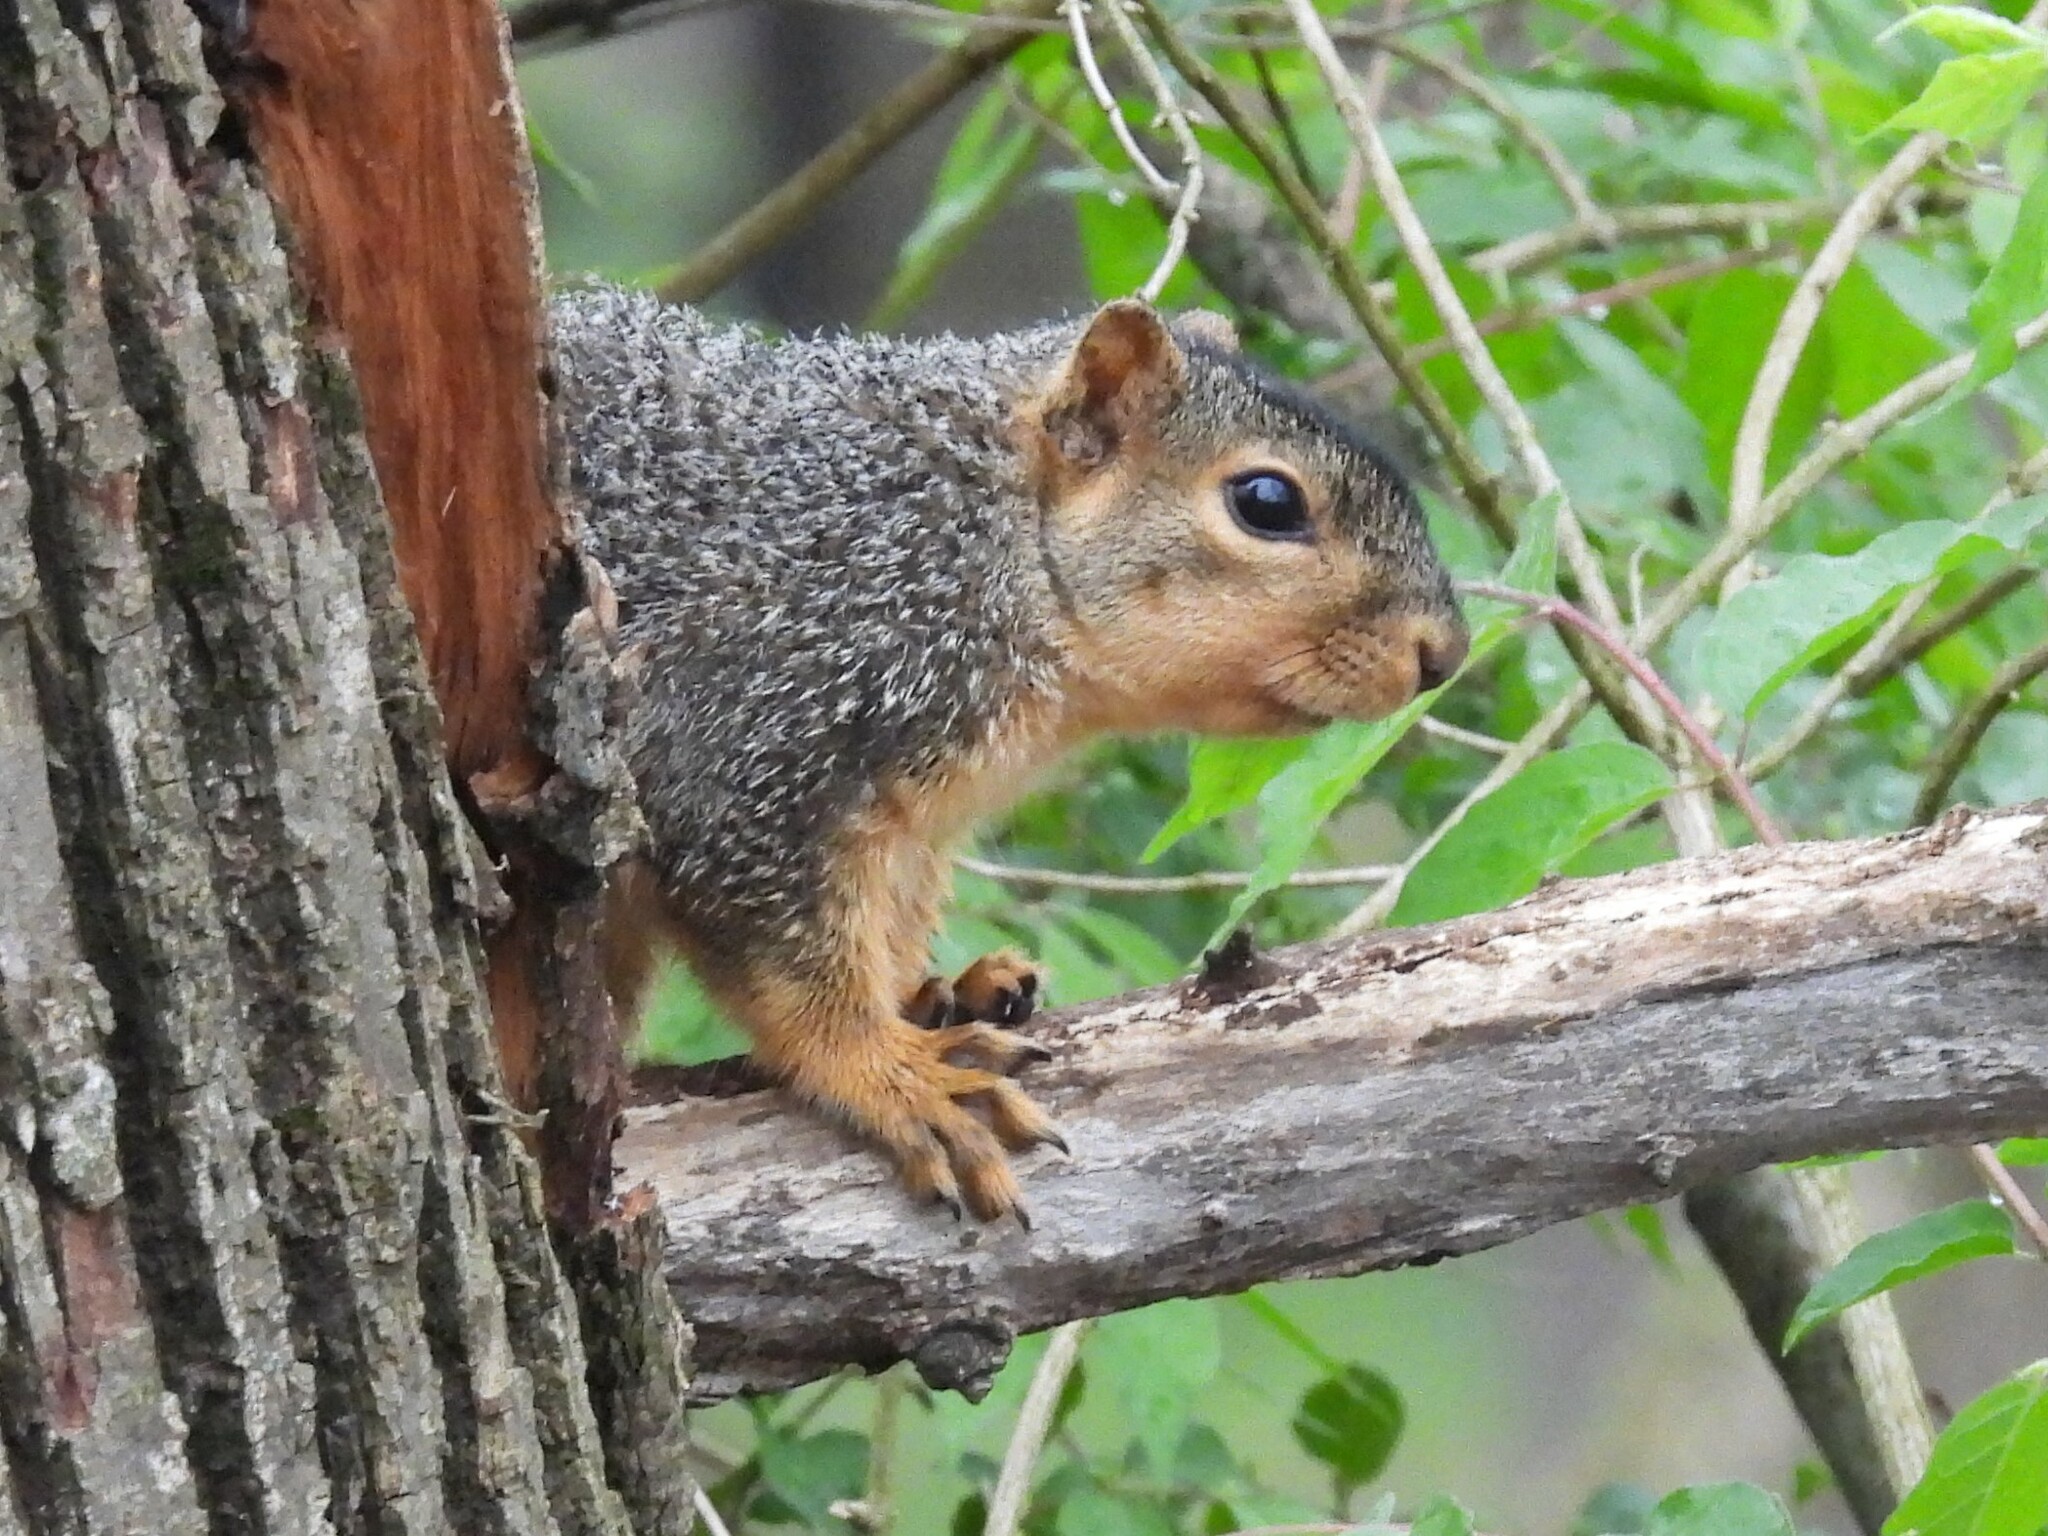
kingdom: Animalia
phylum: Chordata
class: Mammalia
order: Rodentia
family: Sciuridae
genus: Sciurus
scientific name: Sciurus niger
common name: Fox squirrel
